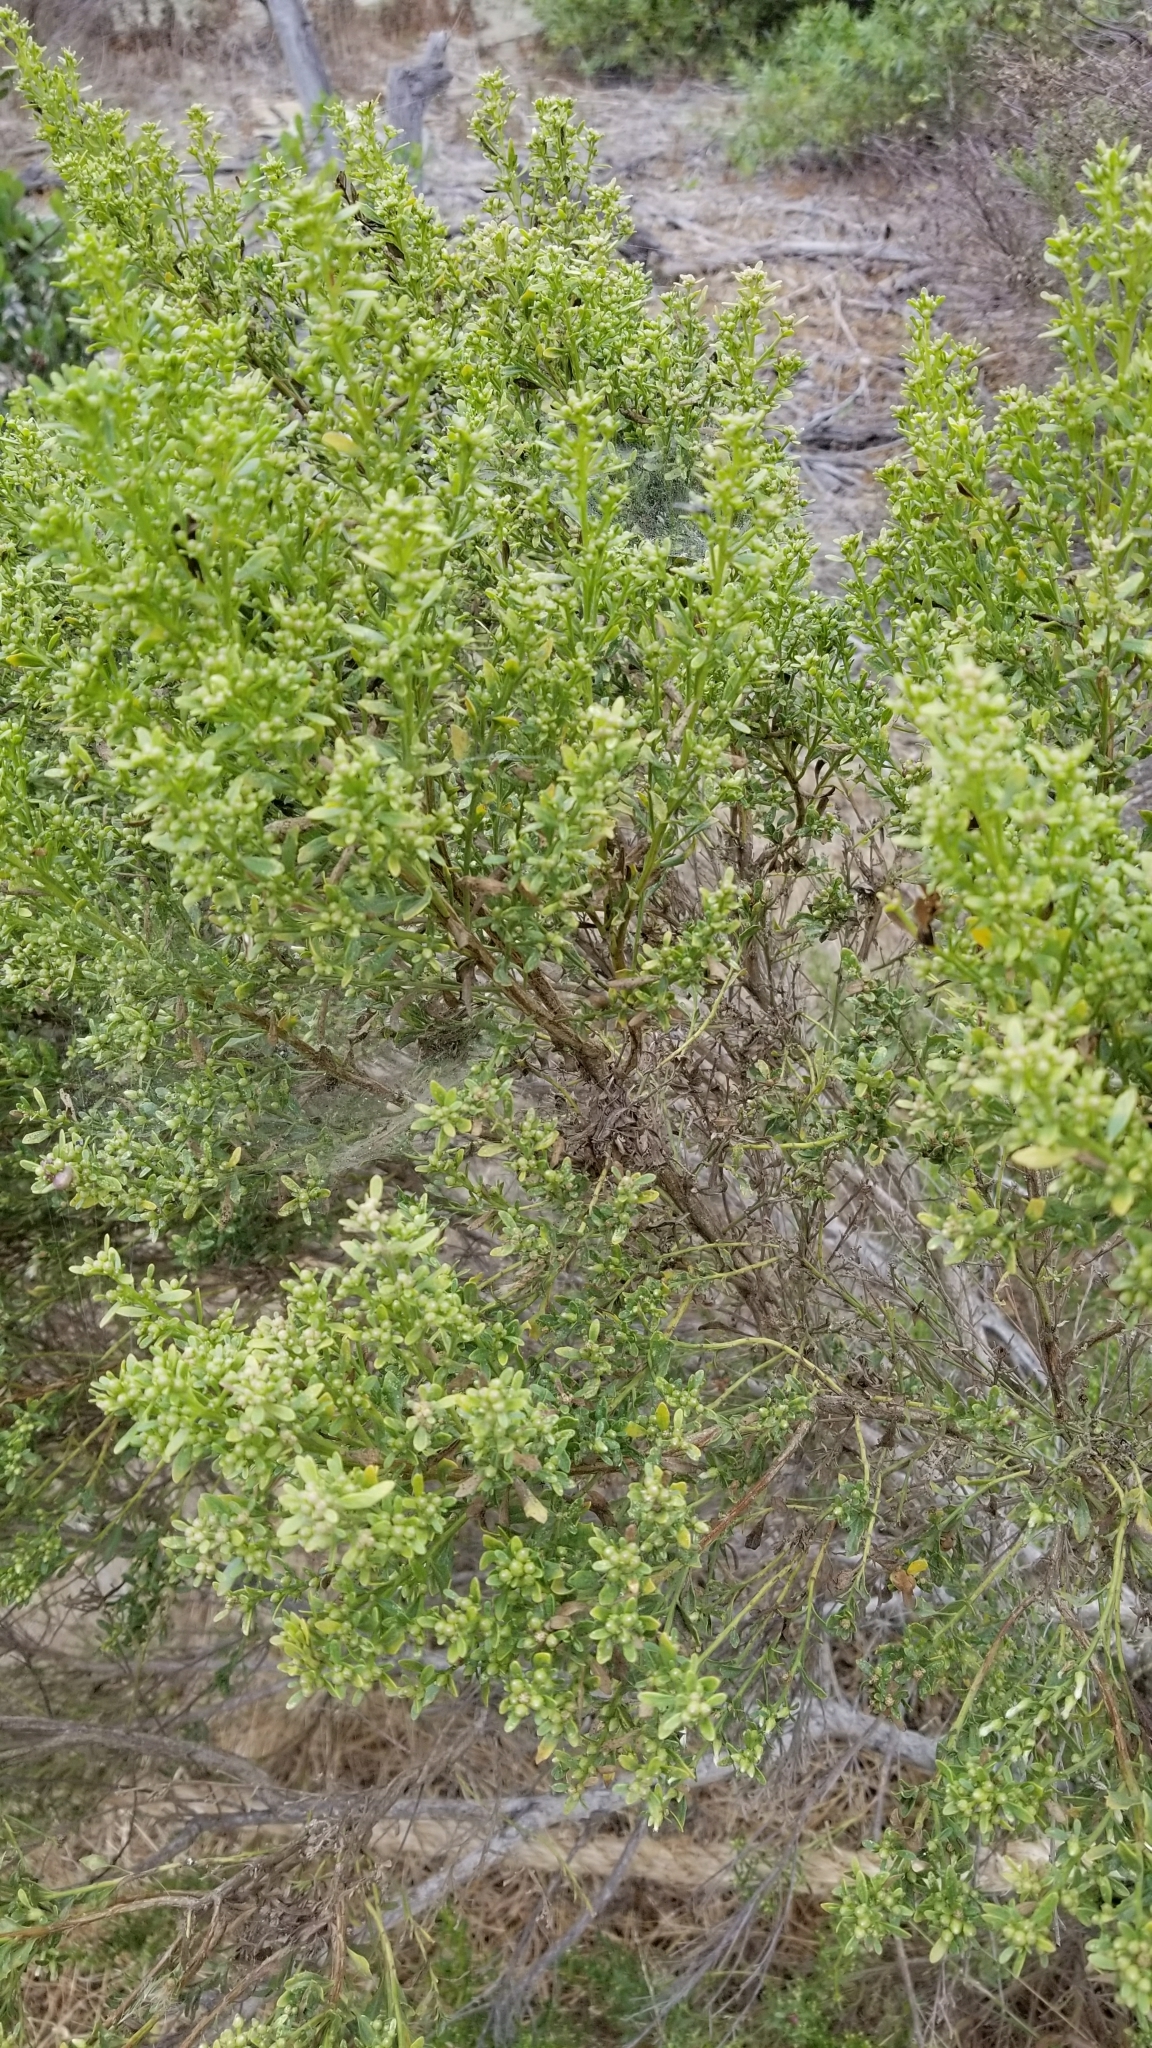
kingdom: Plantae
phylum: Tracheophyta
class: Magnoliopsida
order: Asterales
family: Asteraceae
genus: Baccharis
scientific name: Baccharis pilularis
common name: Coyotebrush
